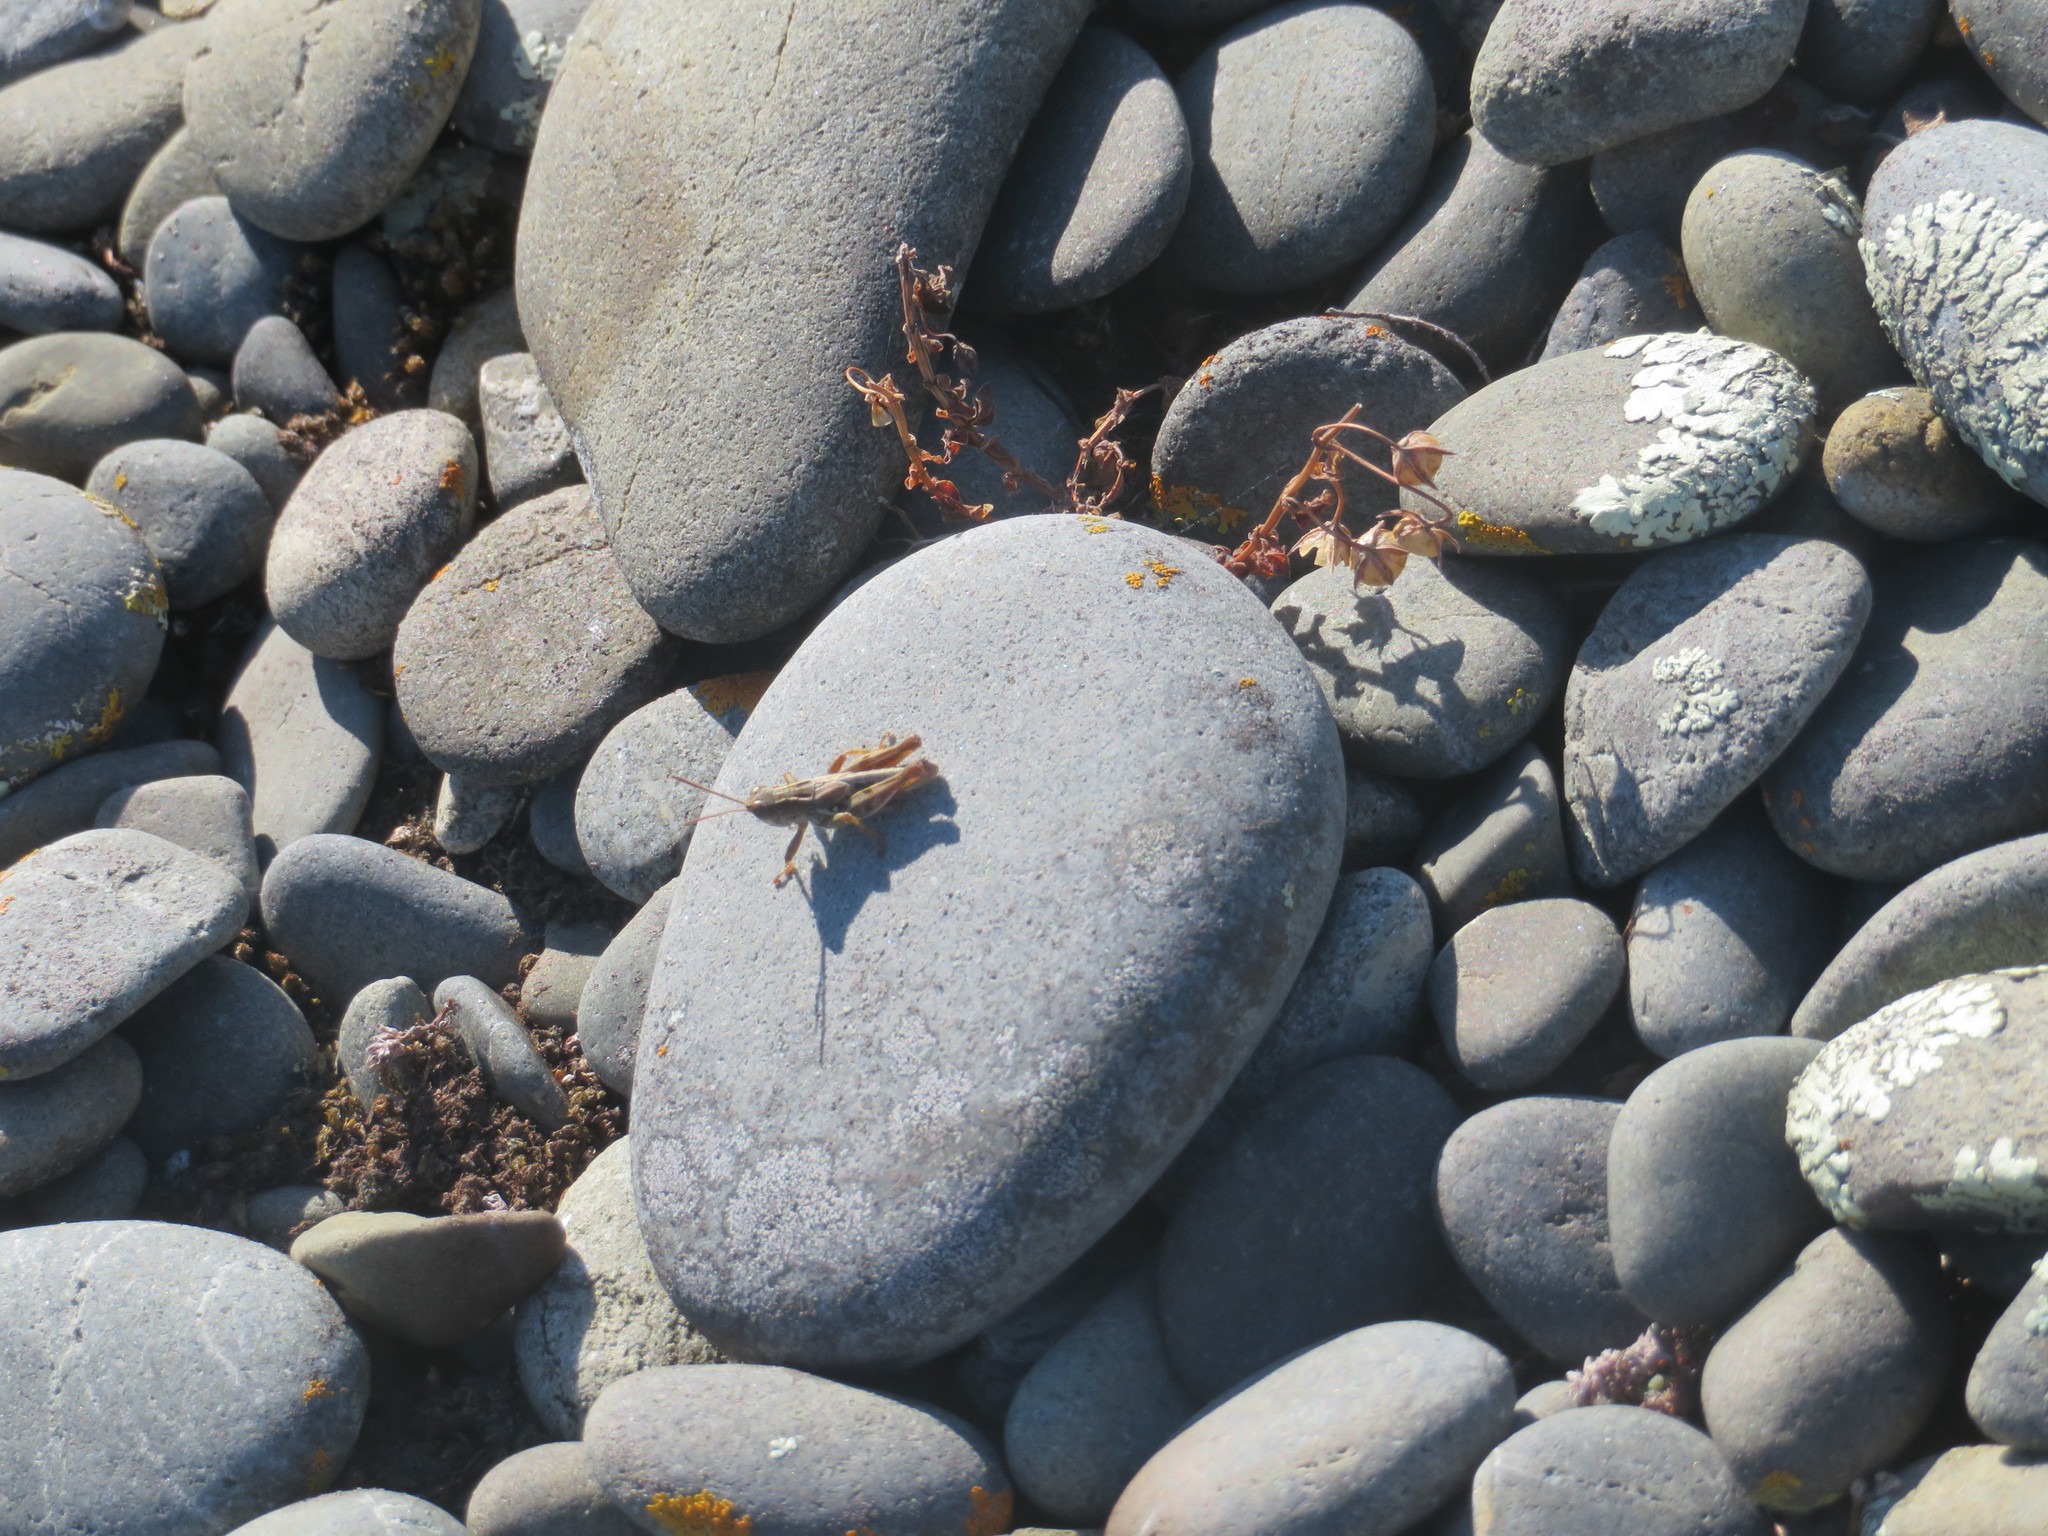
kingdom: Animalia
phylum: Arthropoda
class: Insecta
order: Orthoptera
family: Acrididae
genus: Phaulacridium
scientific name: Phaulacridium marginale
